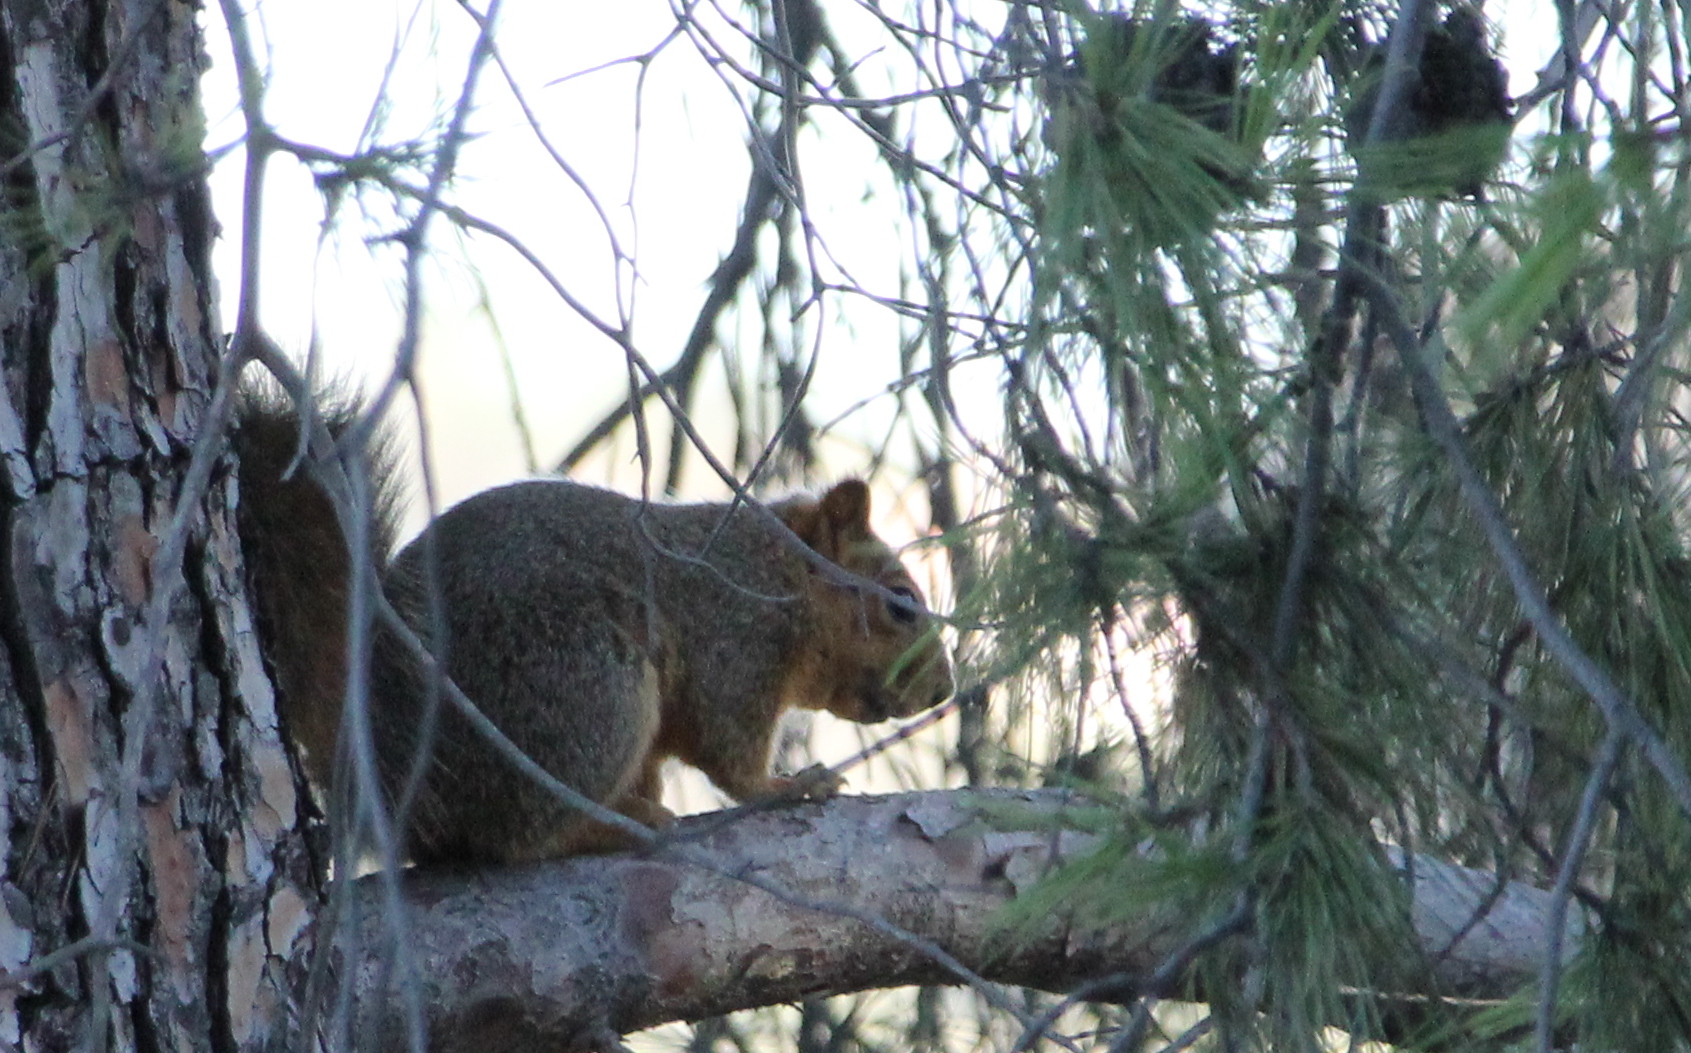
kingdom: Animalia
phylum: Chordata
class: Mammalia
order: Rodentia
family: Sciuridae
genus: Sciurus
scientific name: Sciurus niger
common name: Fox squirrel
